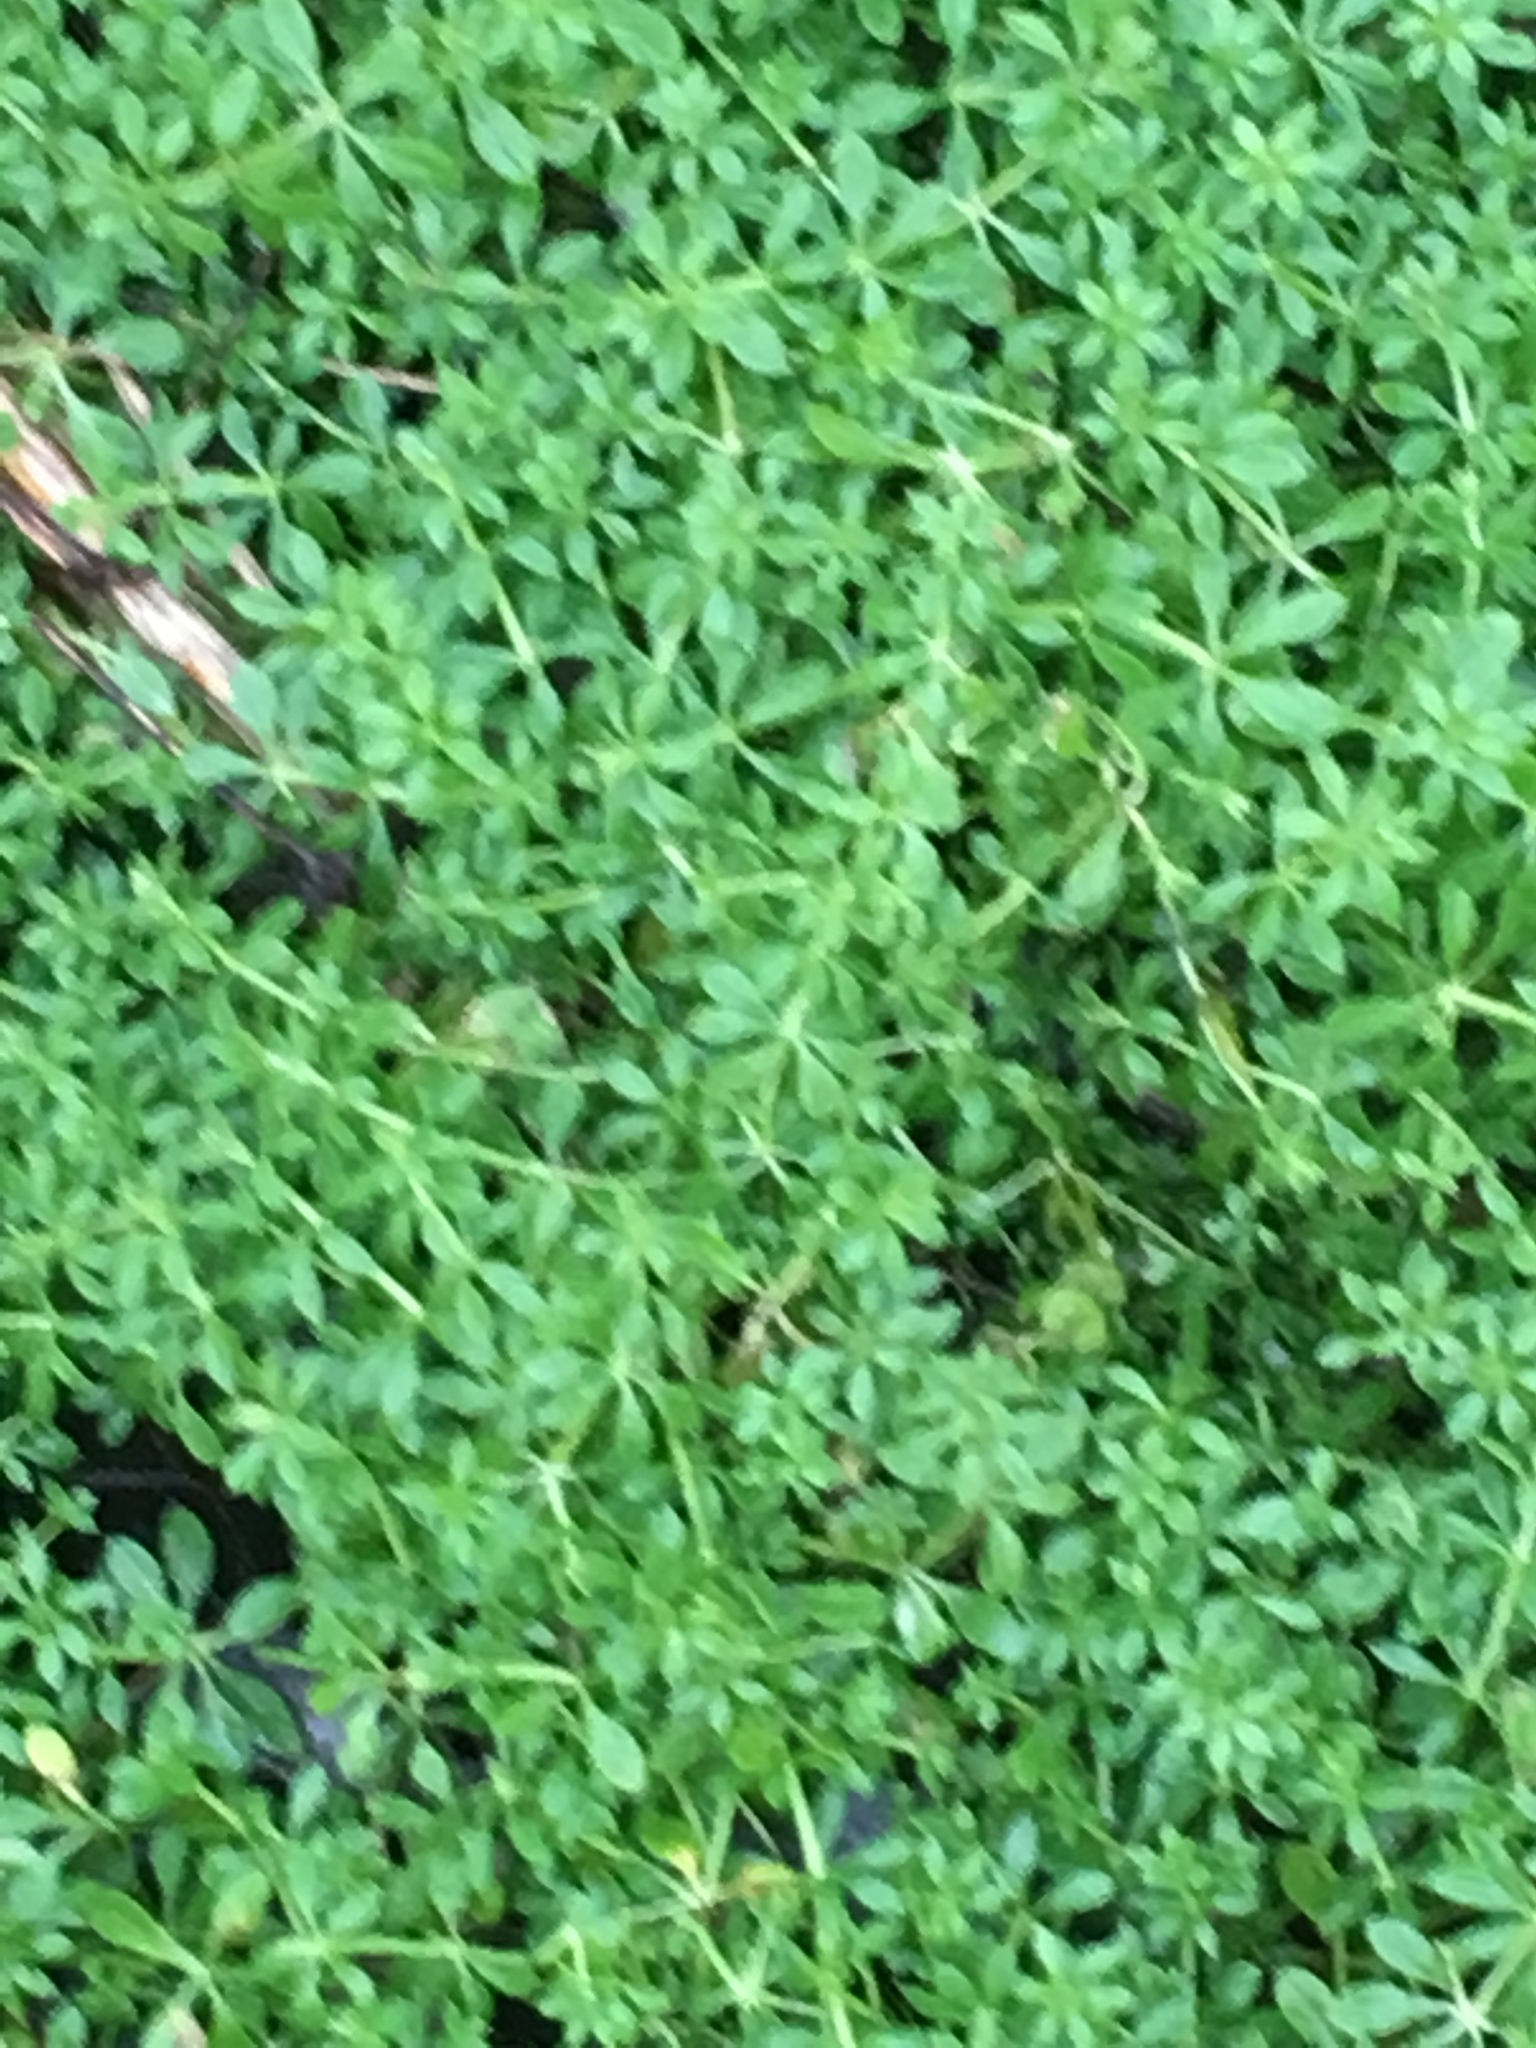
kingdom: Plantae
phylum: Tracheophyta
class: Magnoliopsida
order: Gentianales
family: Rubiaceae
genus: Galium
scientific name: Galium aparine
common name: Cleavers
